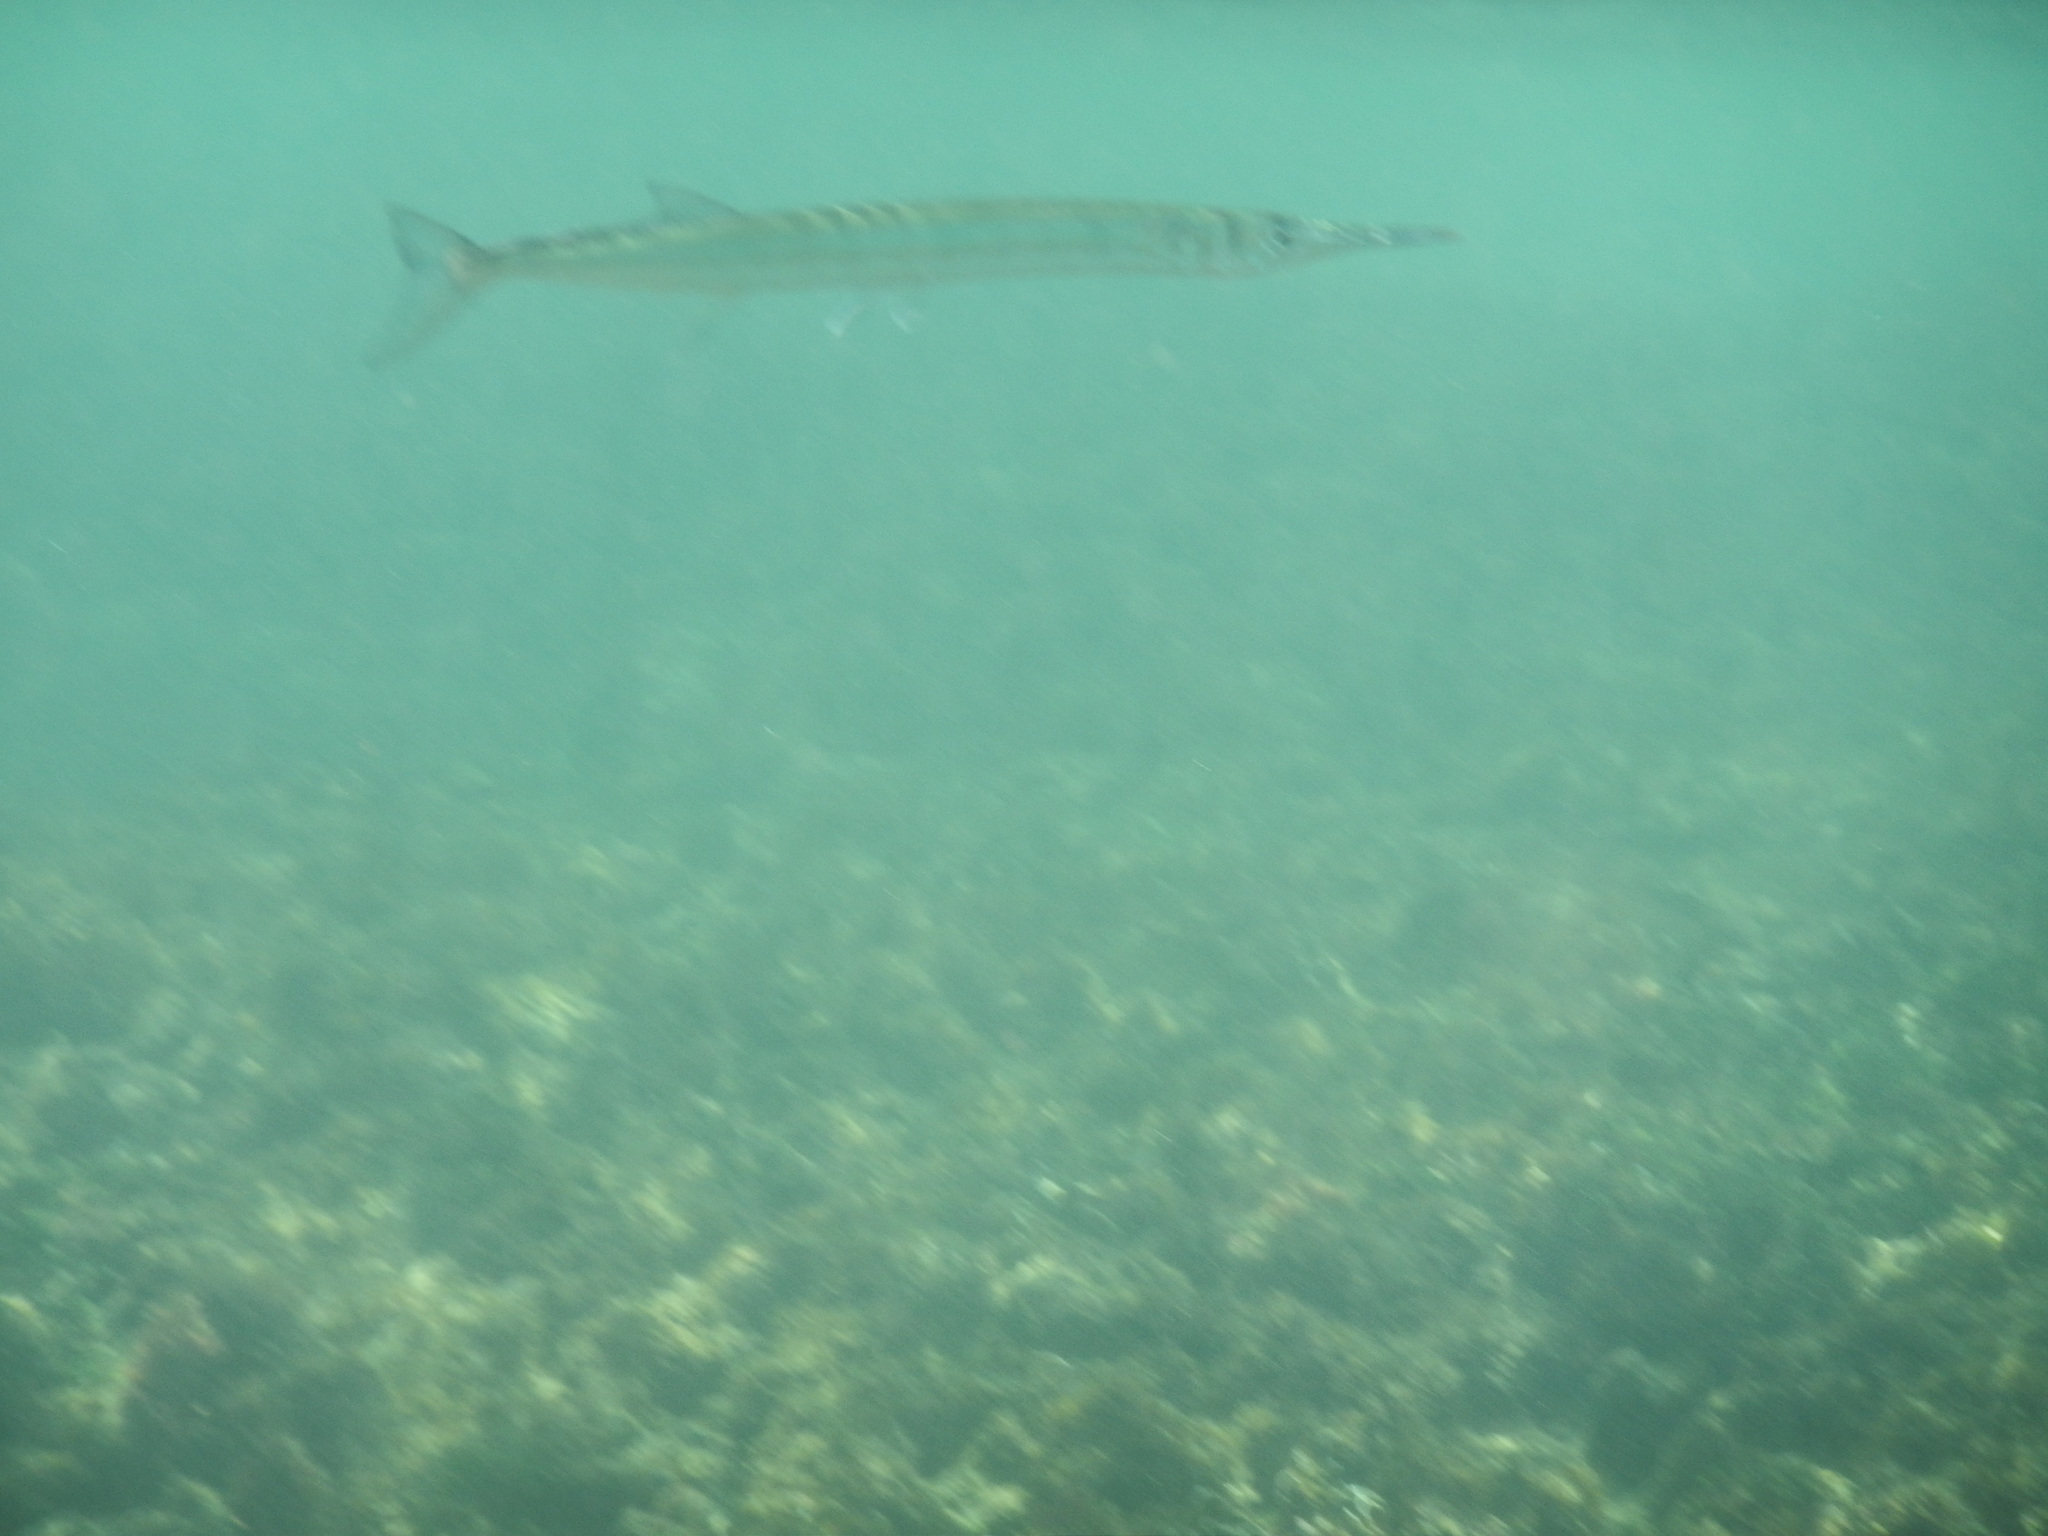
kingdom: Animalia
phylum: Chordata
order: Beloniformes
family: Belonidae
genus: Tylosurus
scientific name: Tylosurus crocodilus
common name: Houndfish
